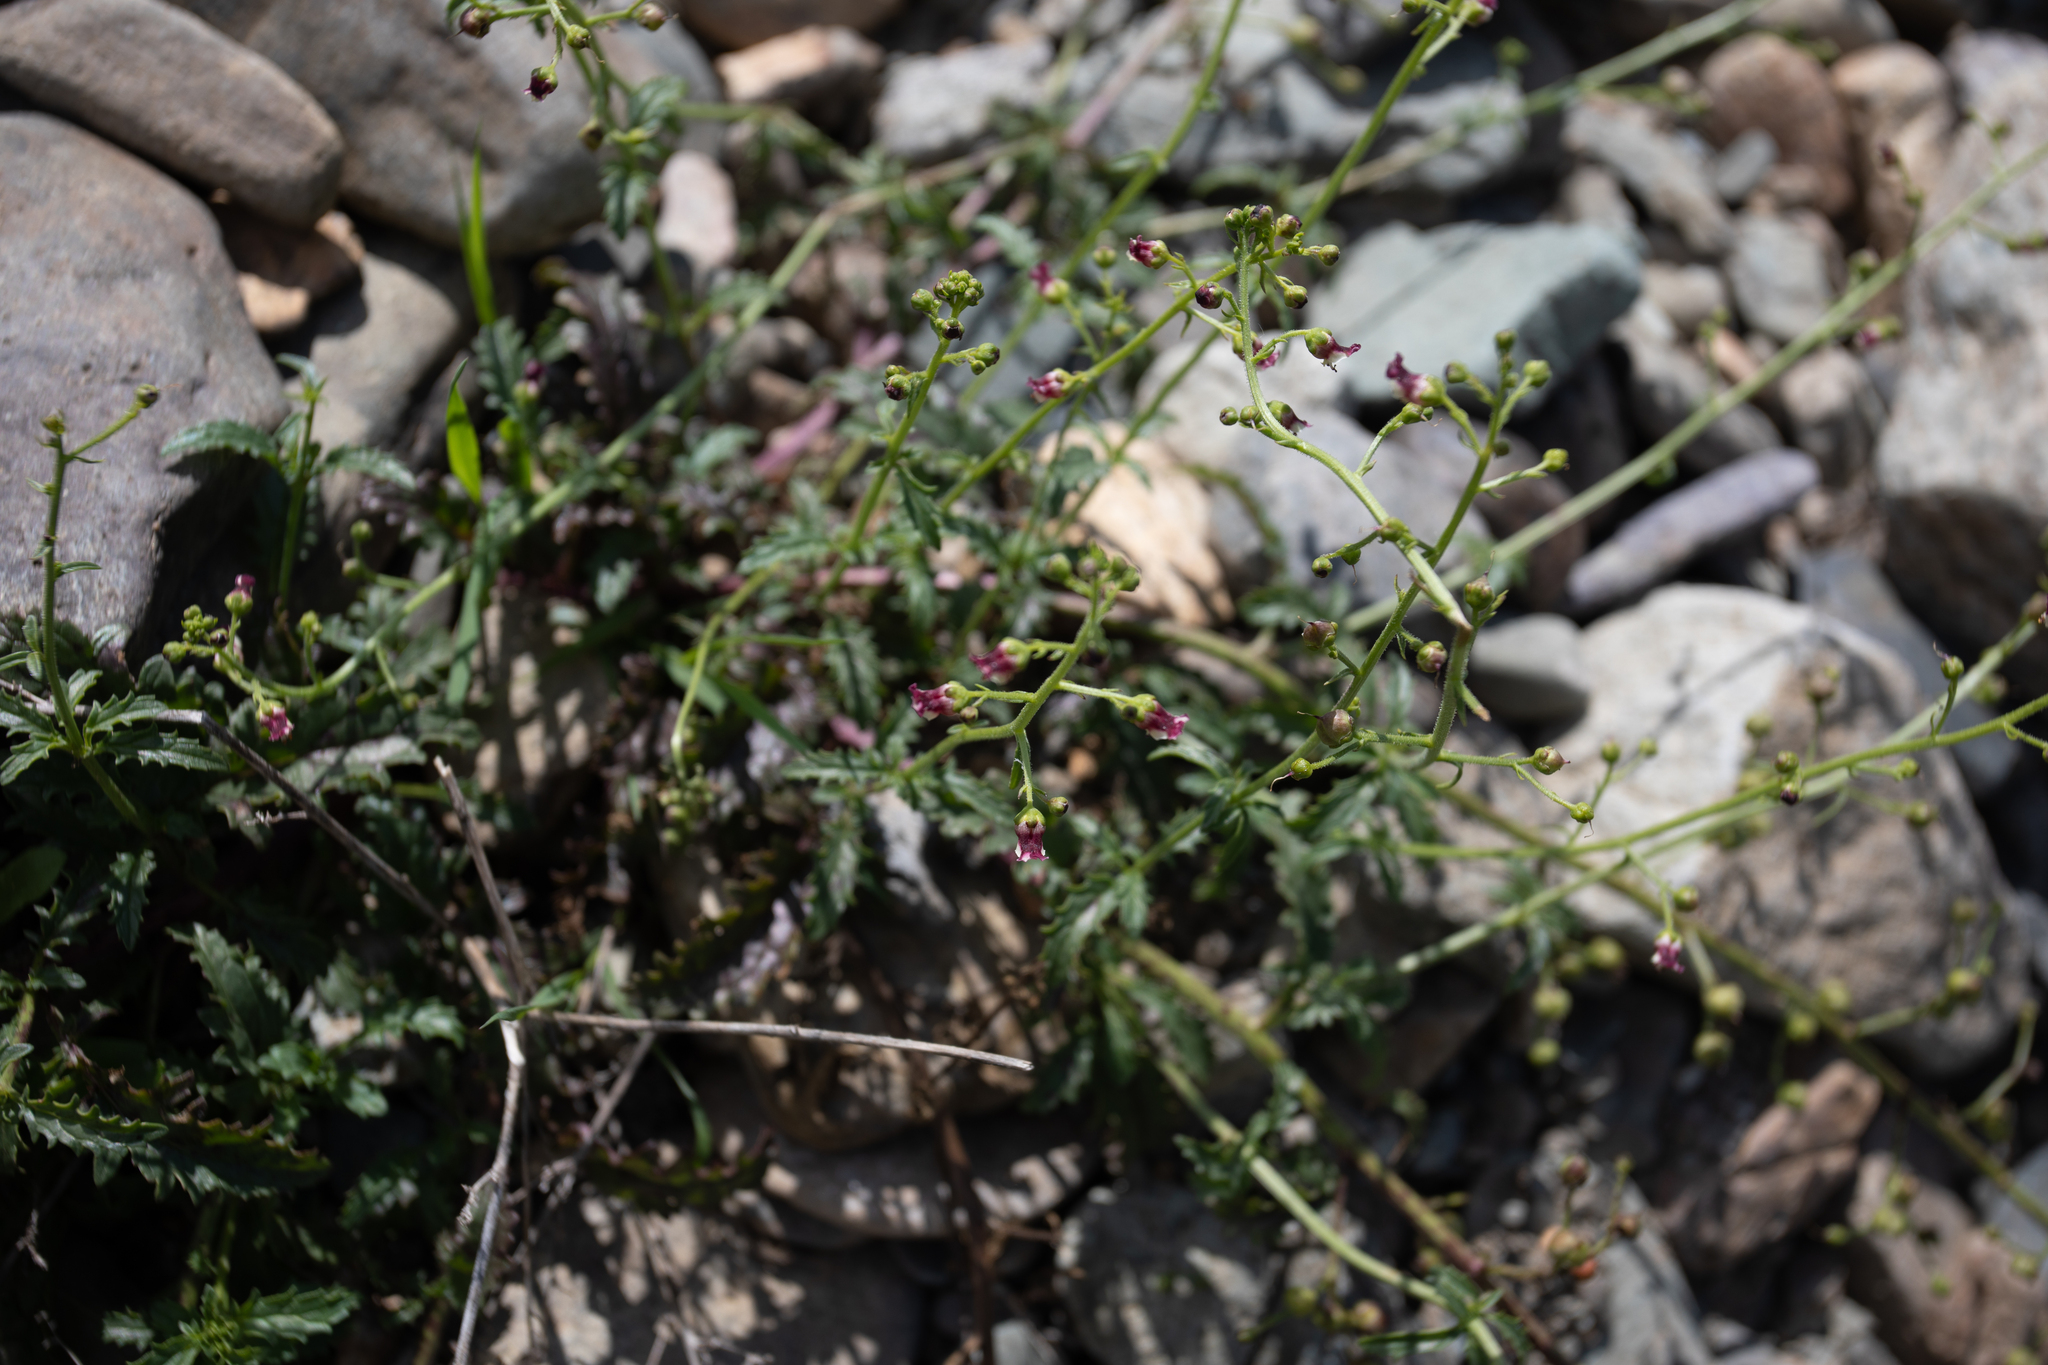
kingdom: Plantae
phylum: Tracheophyta
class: Magnoliopsida
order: Lamiales
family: Scrophulariaceae
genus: Scrophularia
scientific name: Scrophularia incisa
